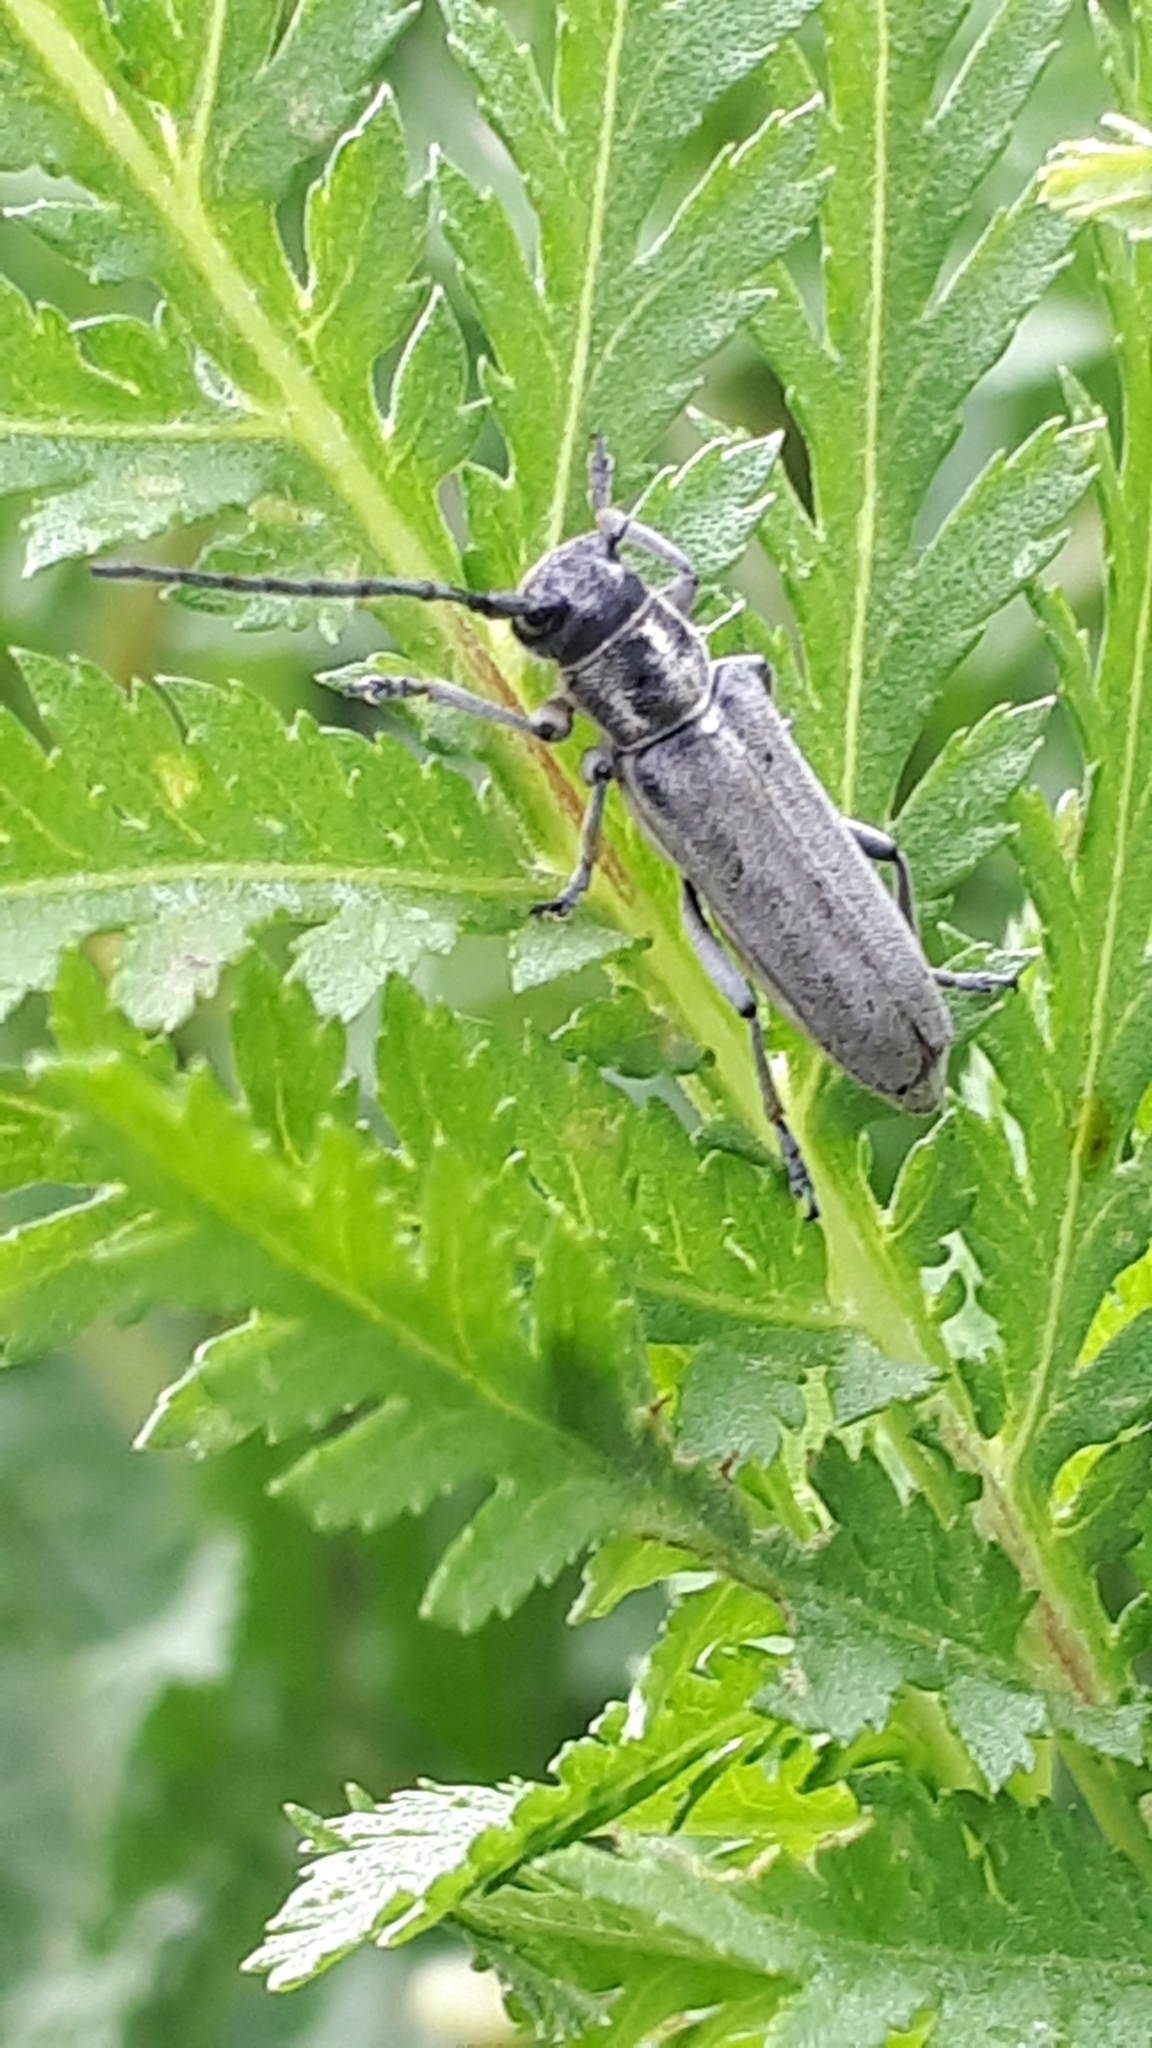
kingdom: Animalia
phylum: Arthropoda
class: Insecta
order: Coleoptera
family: Cerambycidae
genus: Phytoecia
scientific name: Phytoecia nigricornis
